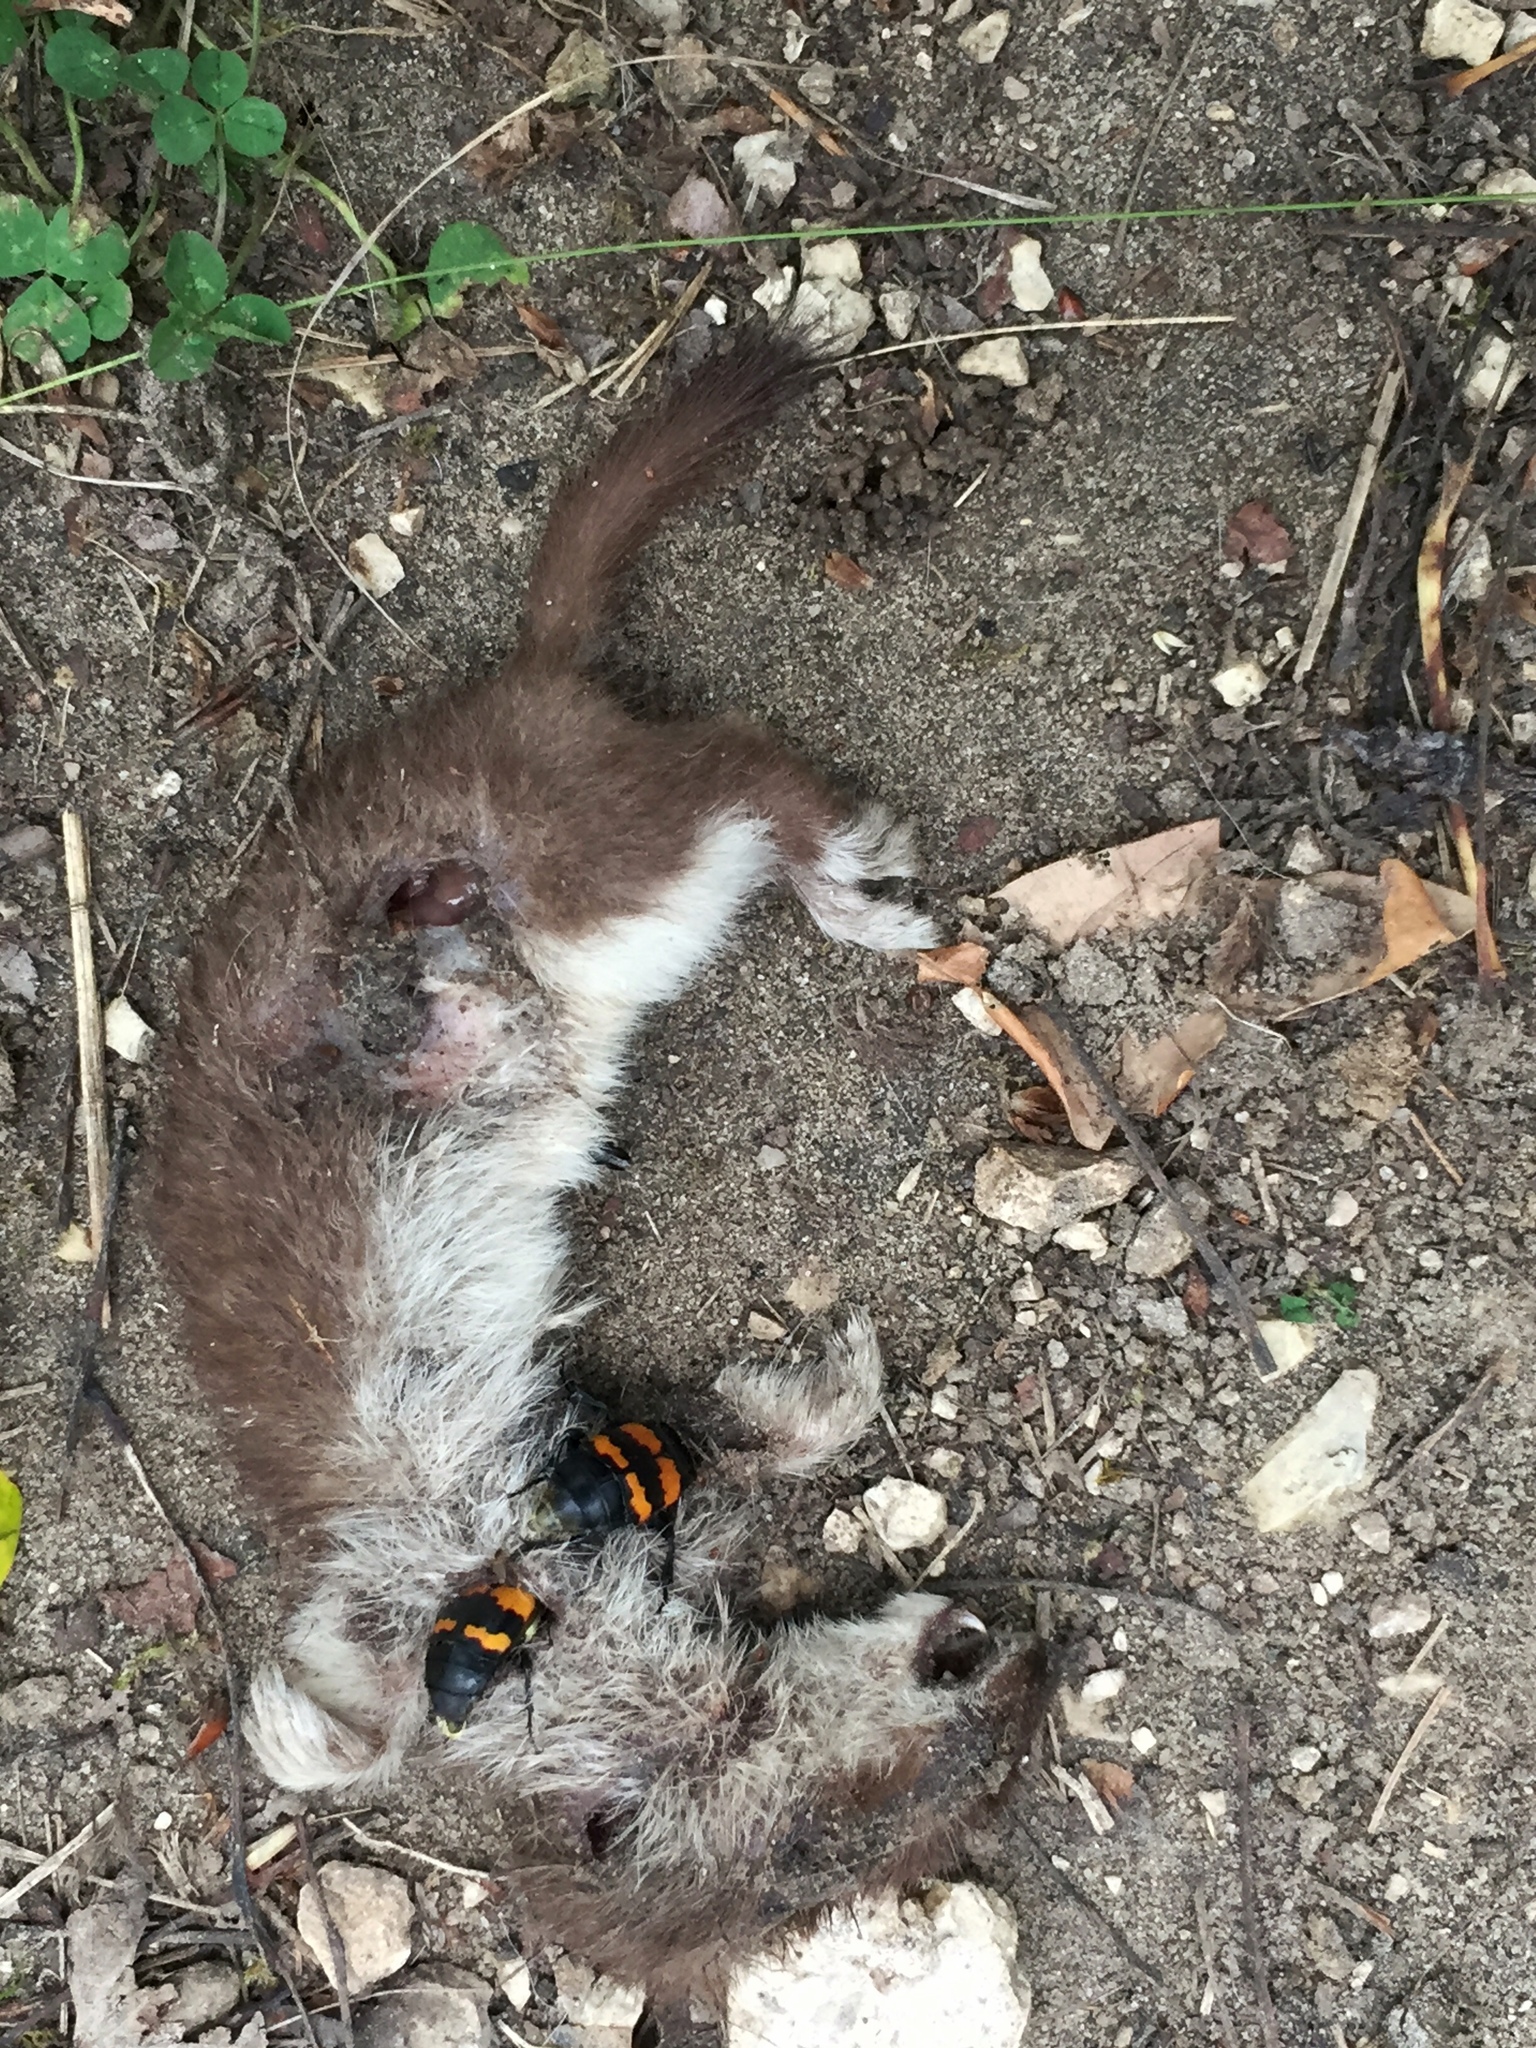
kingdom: Animalia
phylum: Chordata
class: Mammalia
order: Carnivora
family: Mustelidae
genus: Mustela
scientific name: Mustela nivalis
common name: Least weasel
